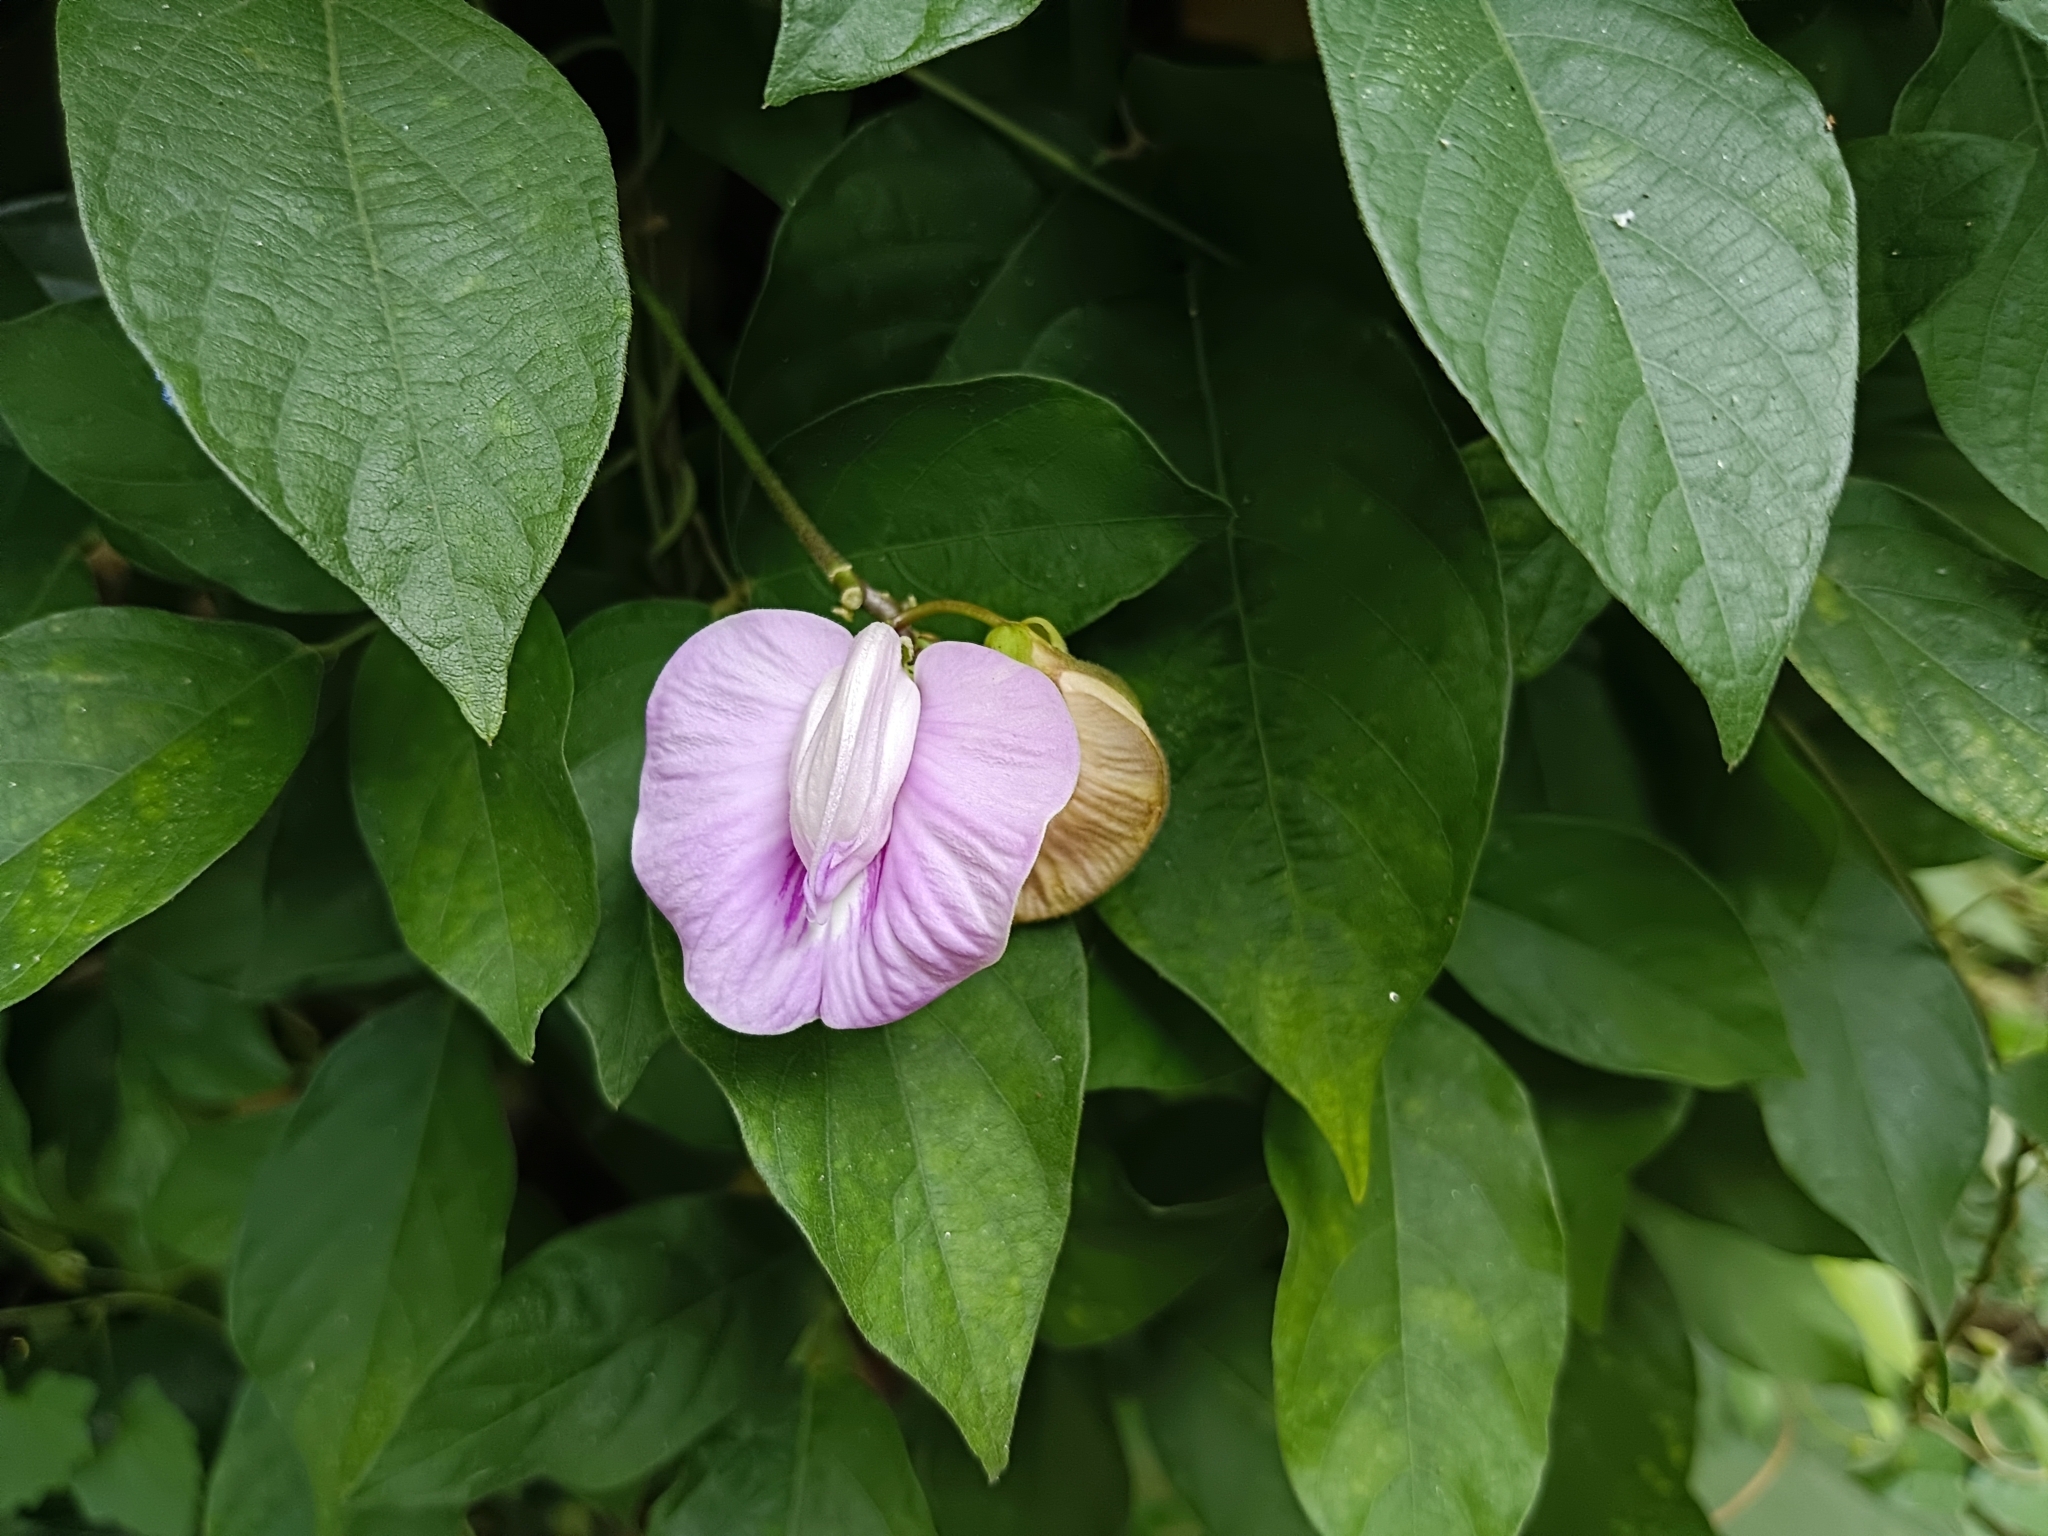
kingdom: Plantae
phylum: Tracheophyta
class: Magnoliopsida
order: Fabales
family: Fabaceae
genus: Centrosema
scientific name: Centrosema molle
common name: Soft butterfly pea
